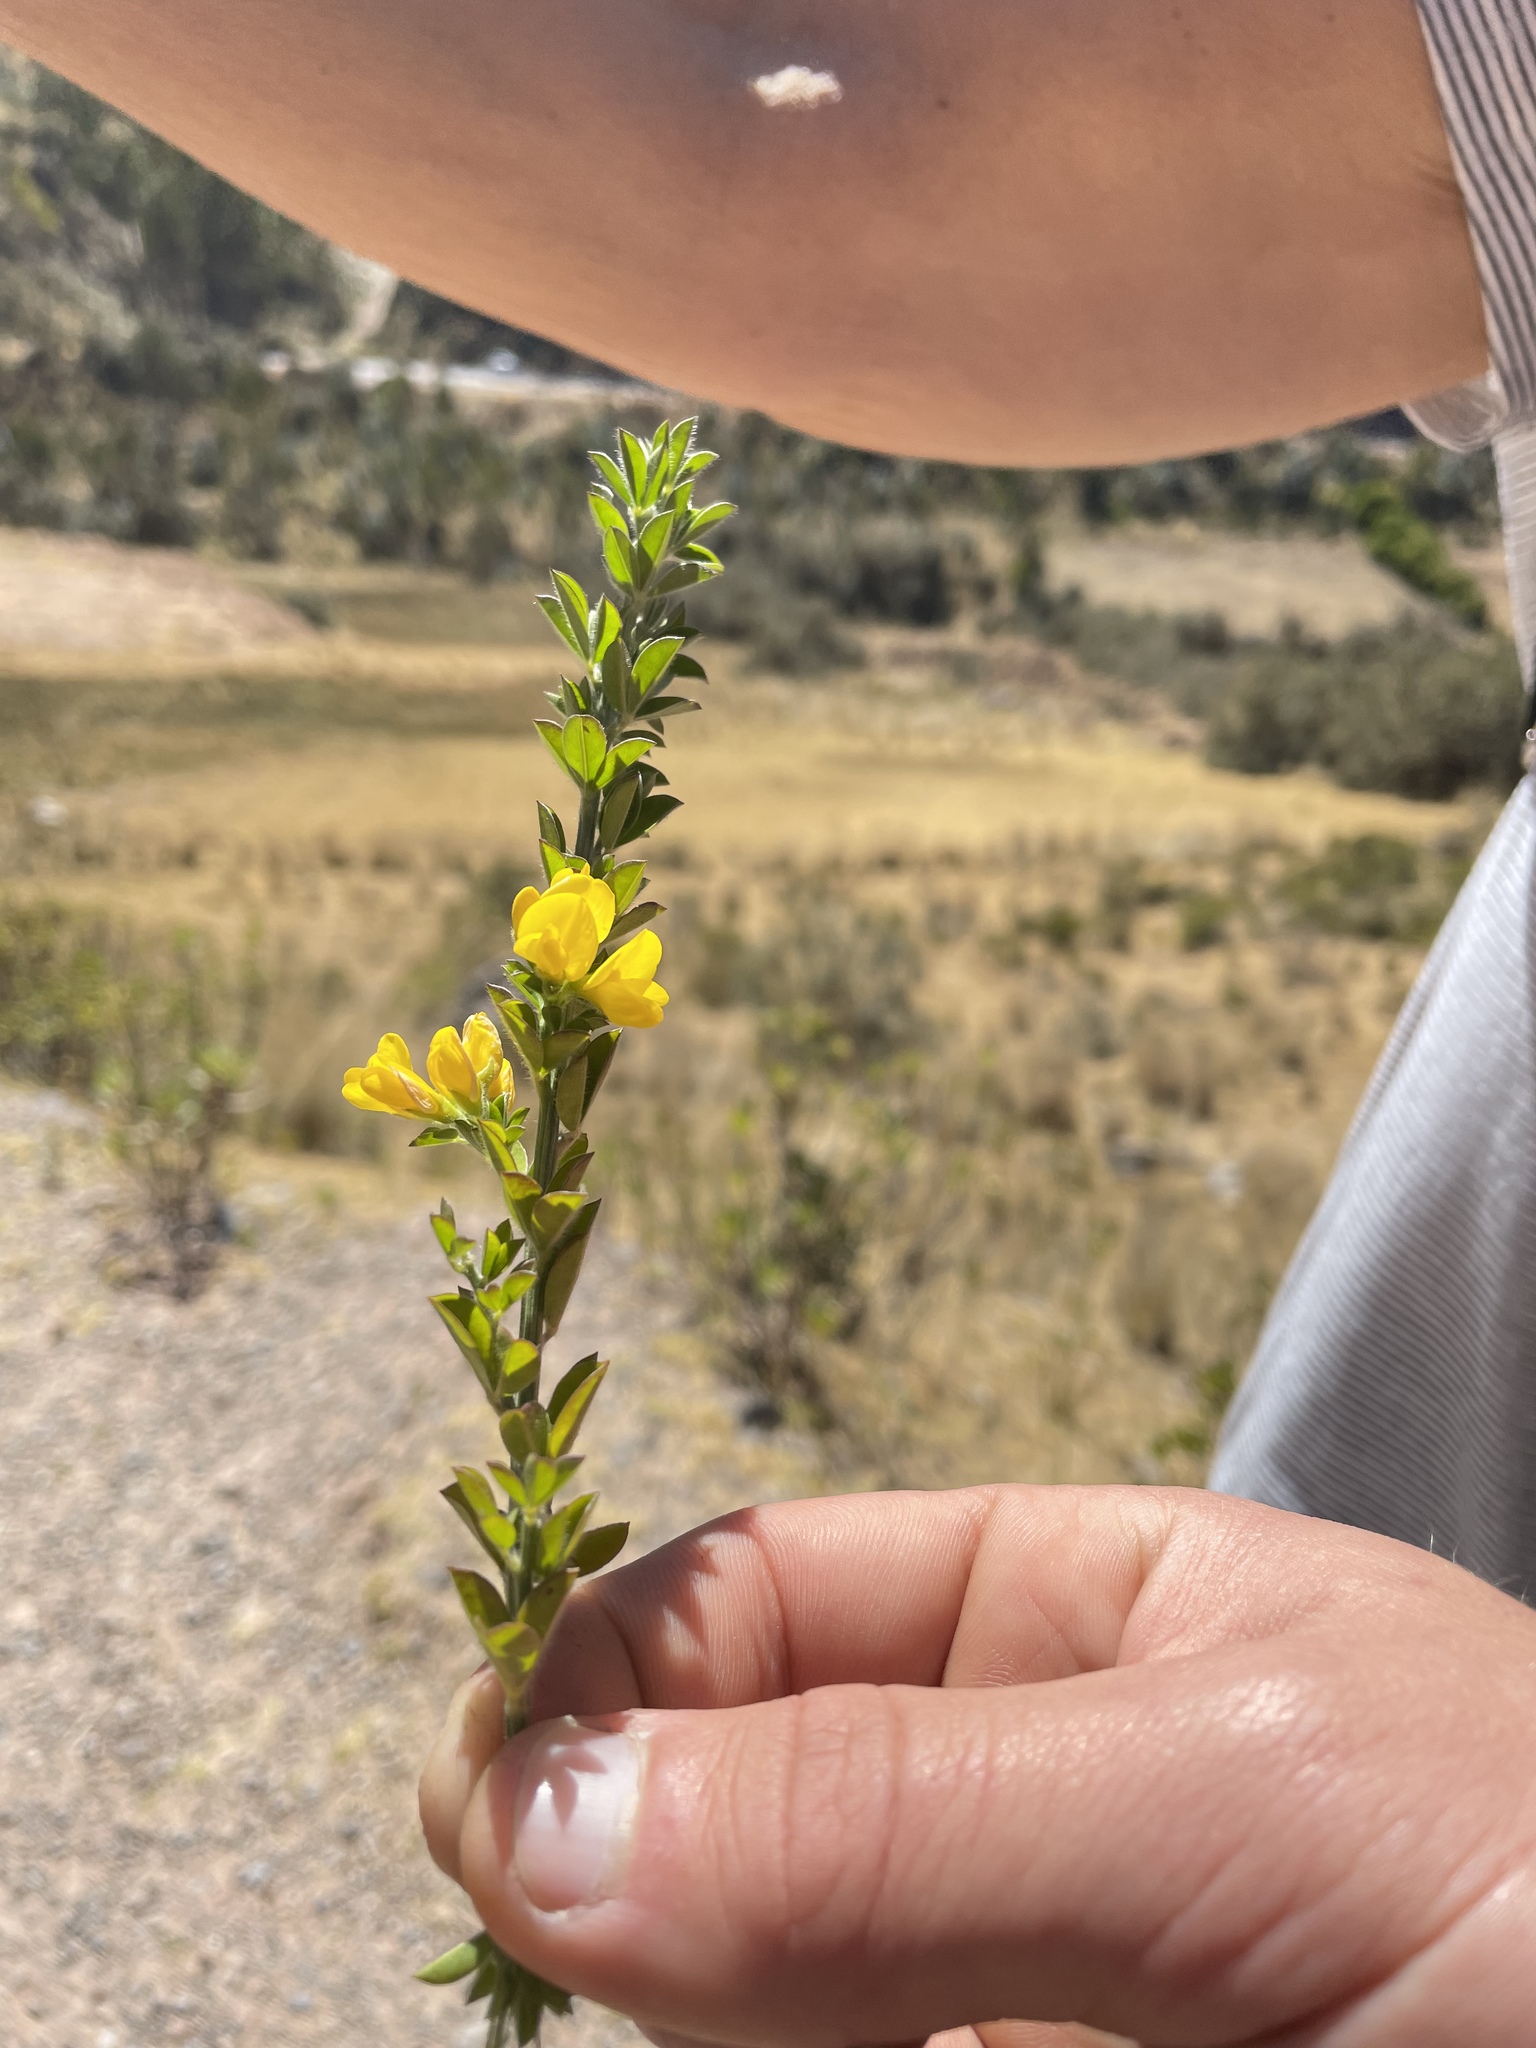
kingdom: Plantae
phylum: Tracheophyta
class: Magnoliopsida
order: Fabales
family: Fabaceae
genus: Genista
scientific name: Genista monspessulana
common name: Montpellier broom
